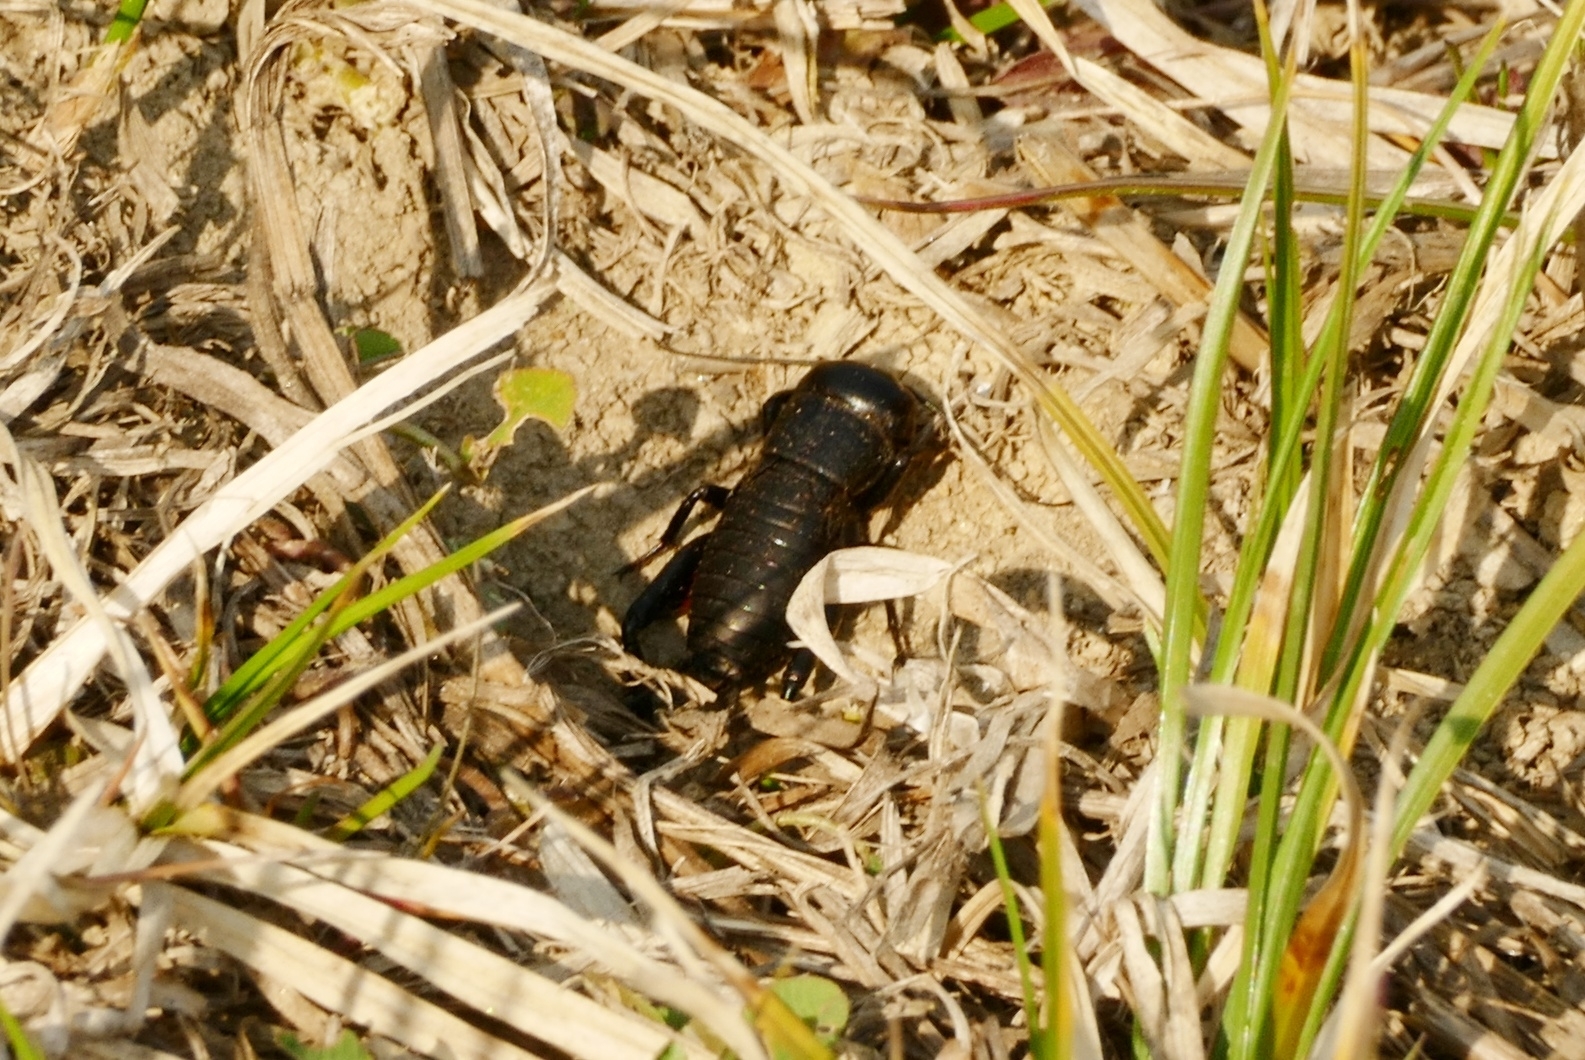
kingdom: Animalia
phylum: Arthropoda
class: Insecta
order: Orthoptera
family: Gryllidae
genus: Gryllus
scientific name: Gryllus campestris
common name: Field cricket
